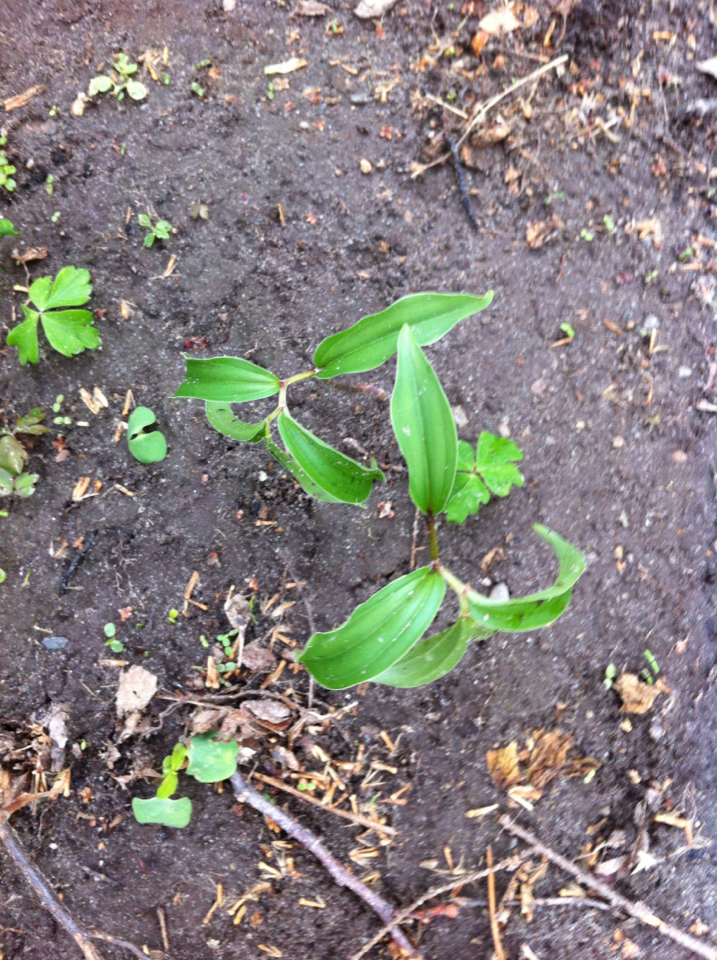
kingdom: Plantae
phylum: Tracheophyta
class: Liliopsida
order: Asparagales
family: Asparagaceae
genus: Maianthemum
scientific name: Maianthemum racemosum
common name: False spikenard
